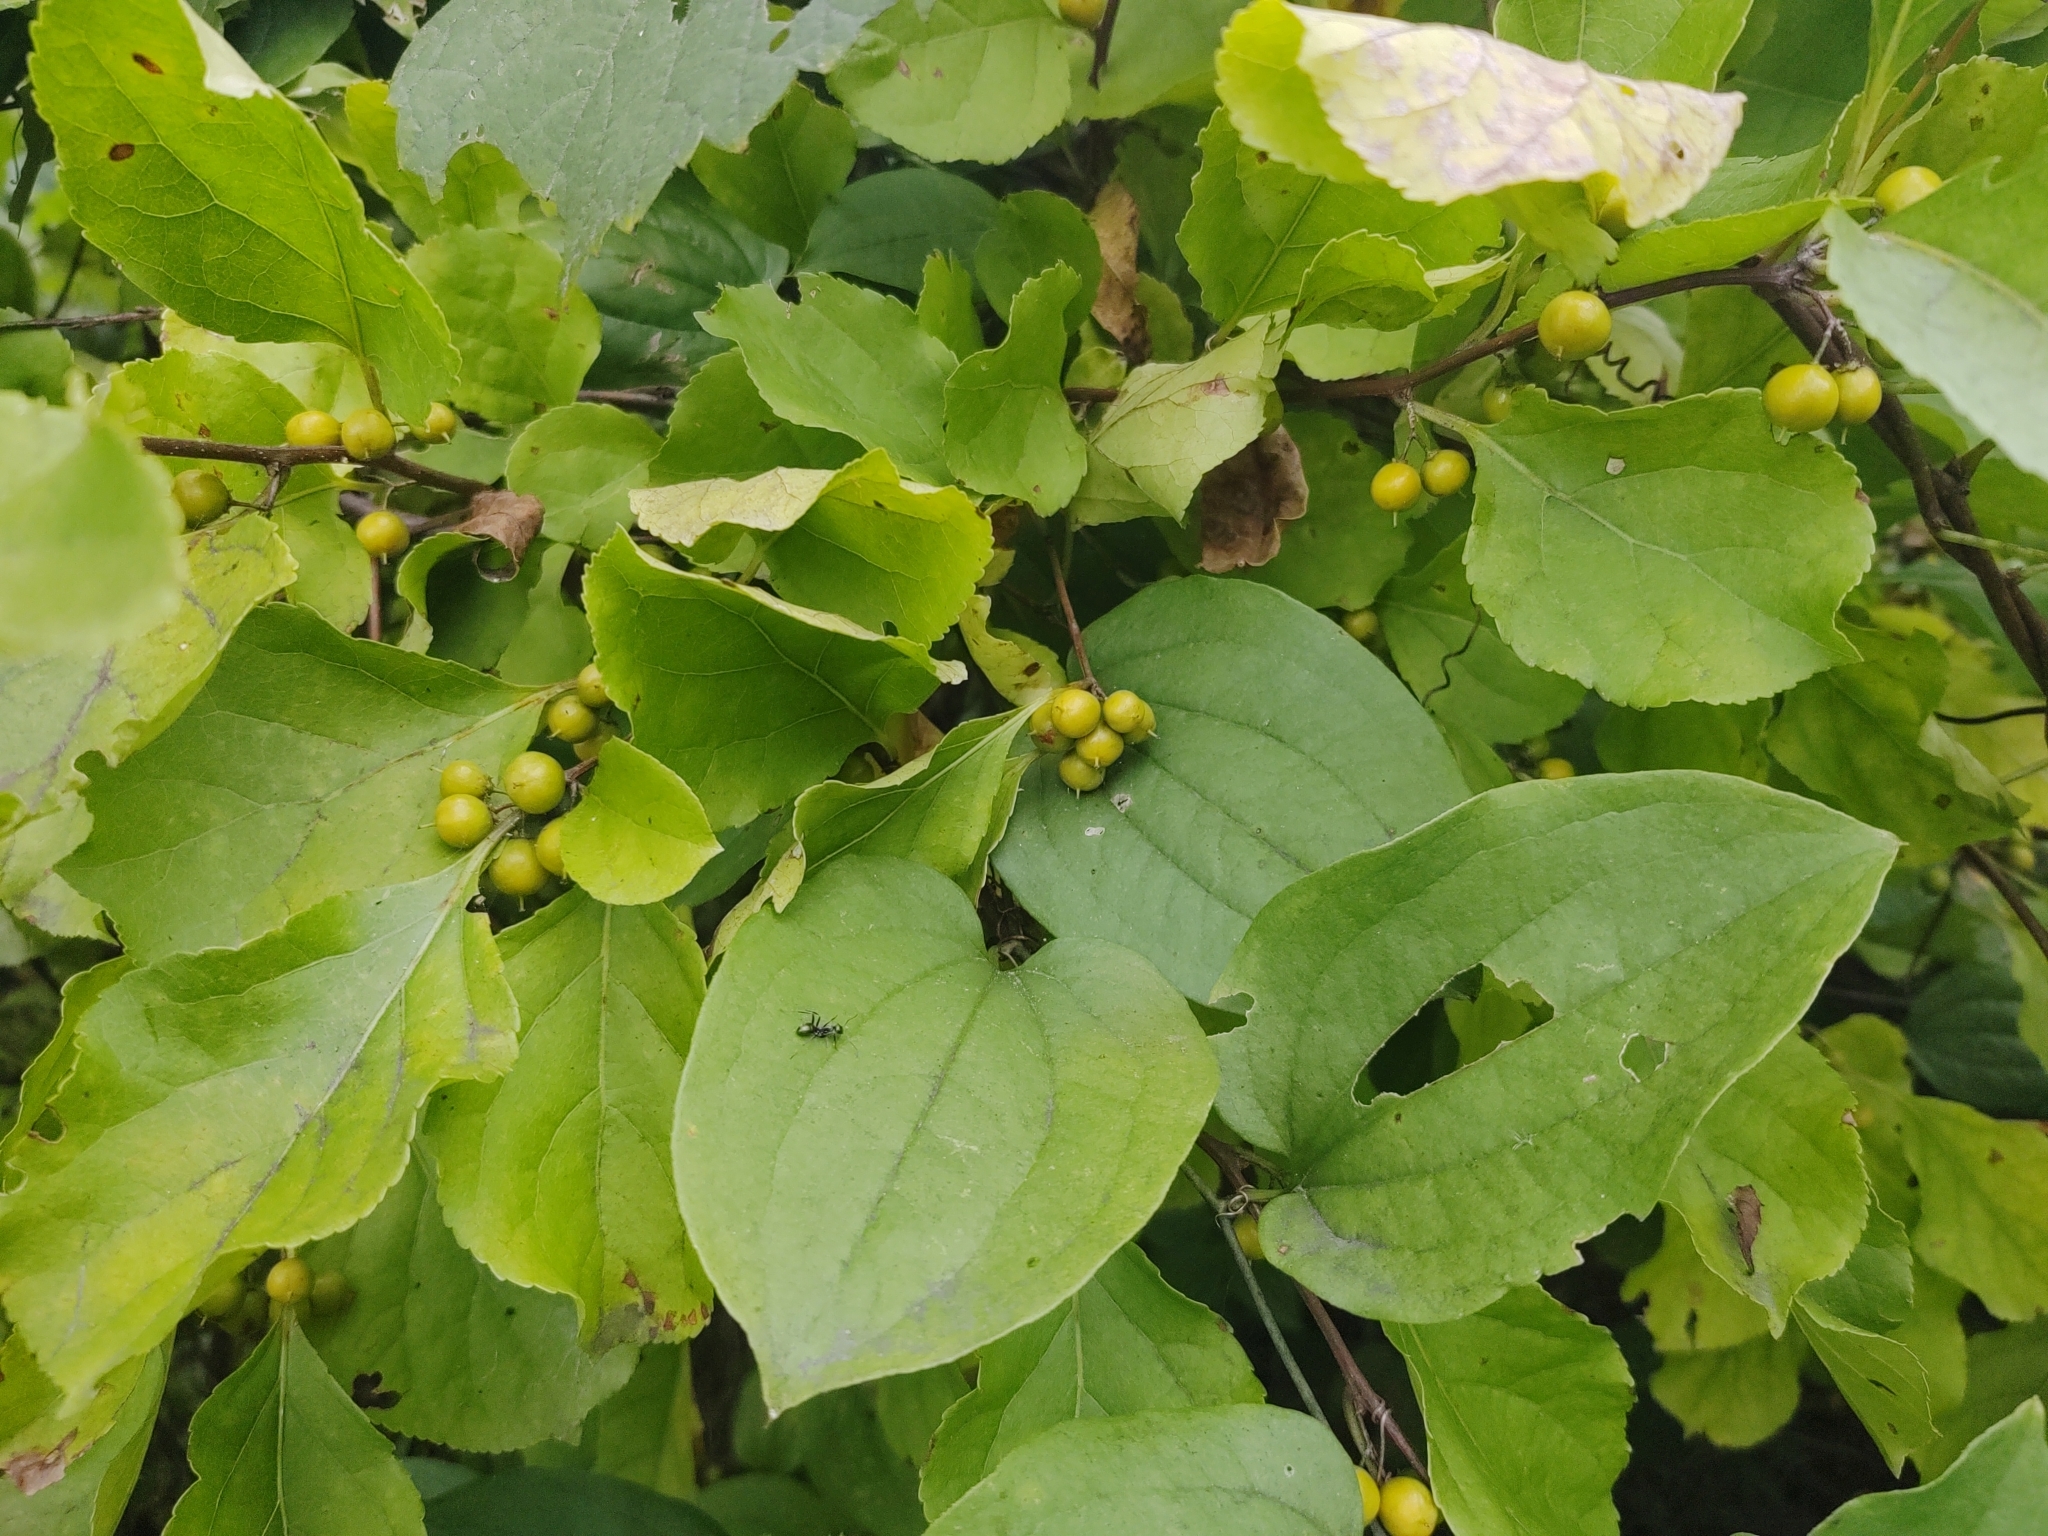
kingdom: Plantae
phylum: Tracheophyta
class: Magnoliopsida
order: Celastrales
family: Celastraceae
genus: Celastrus
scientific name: Celastrus orbiculatus
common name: Oriental bittersweet
